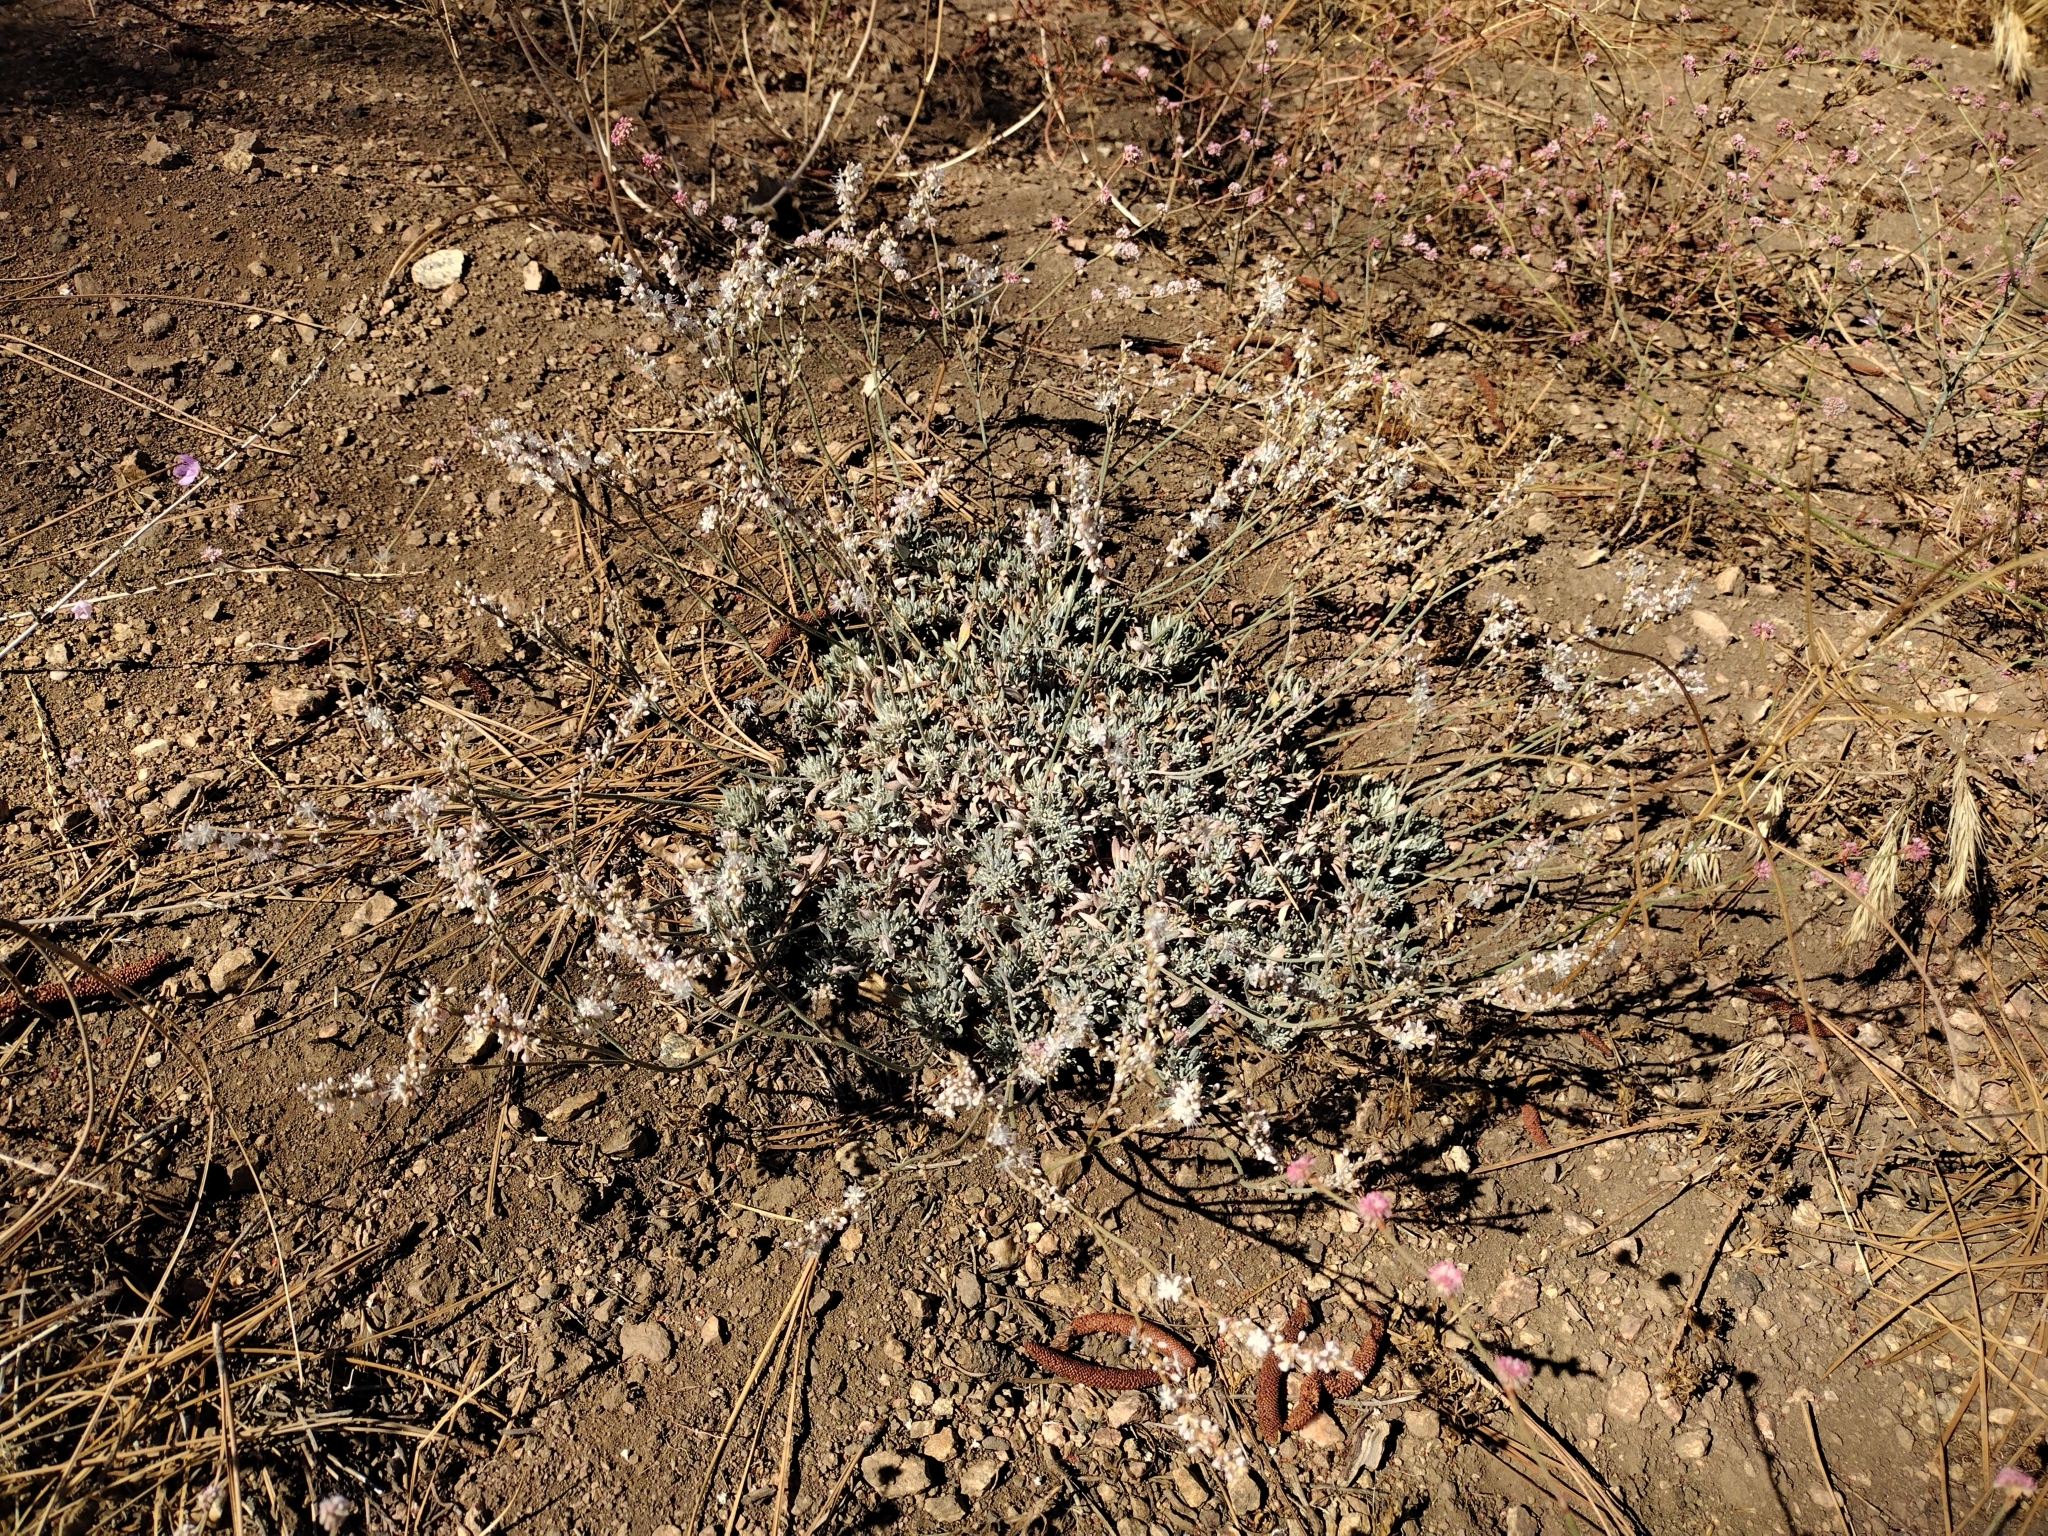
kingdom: Plantae
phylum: Tracheophyta
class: Magnoliopsida
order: Caryophyllales
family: Polygonaceae
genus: Eriogonum
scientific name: Eriogonum wrightii
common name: Bastard-sage
